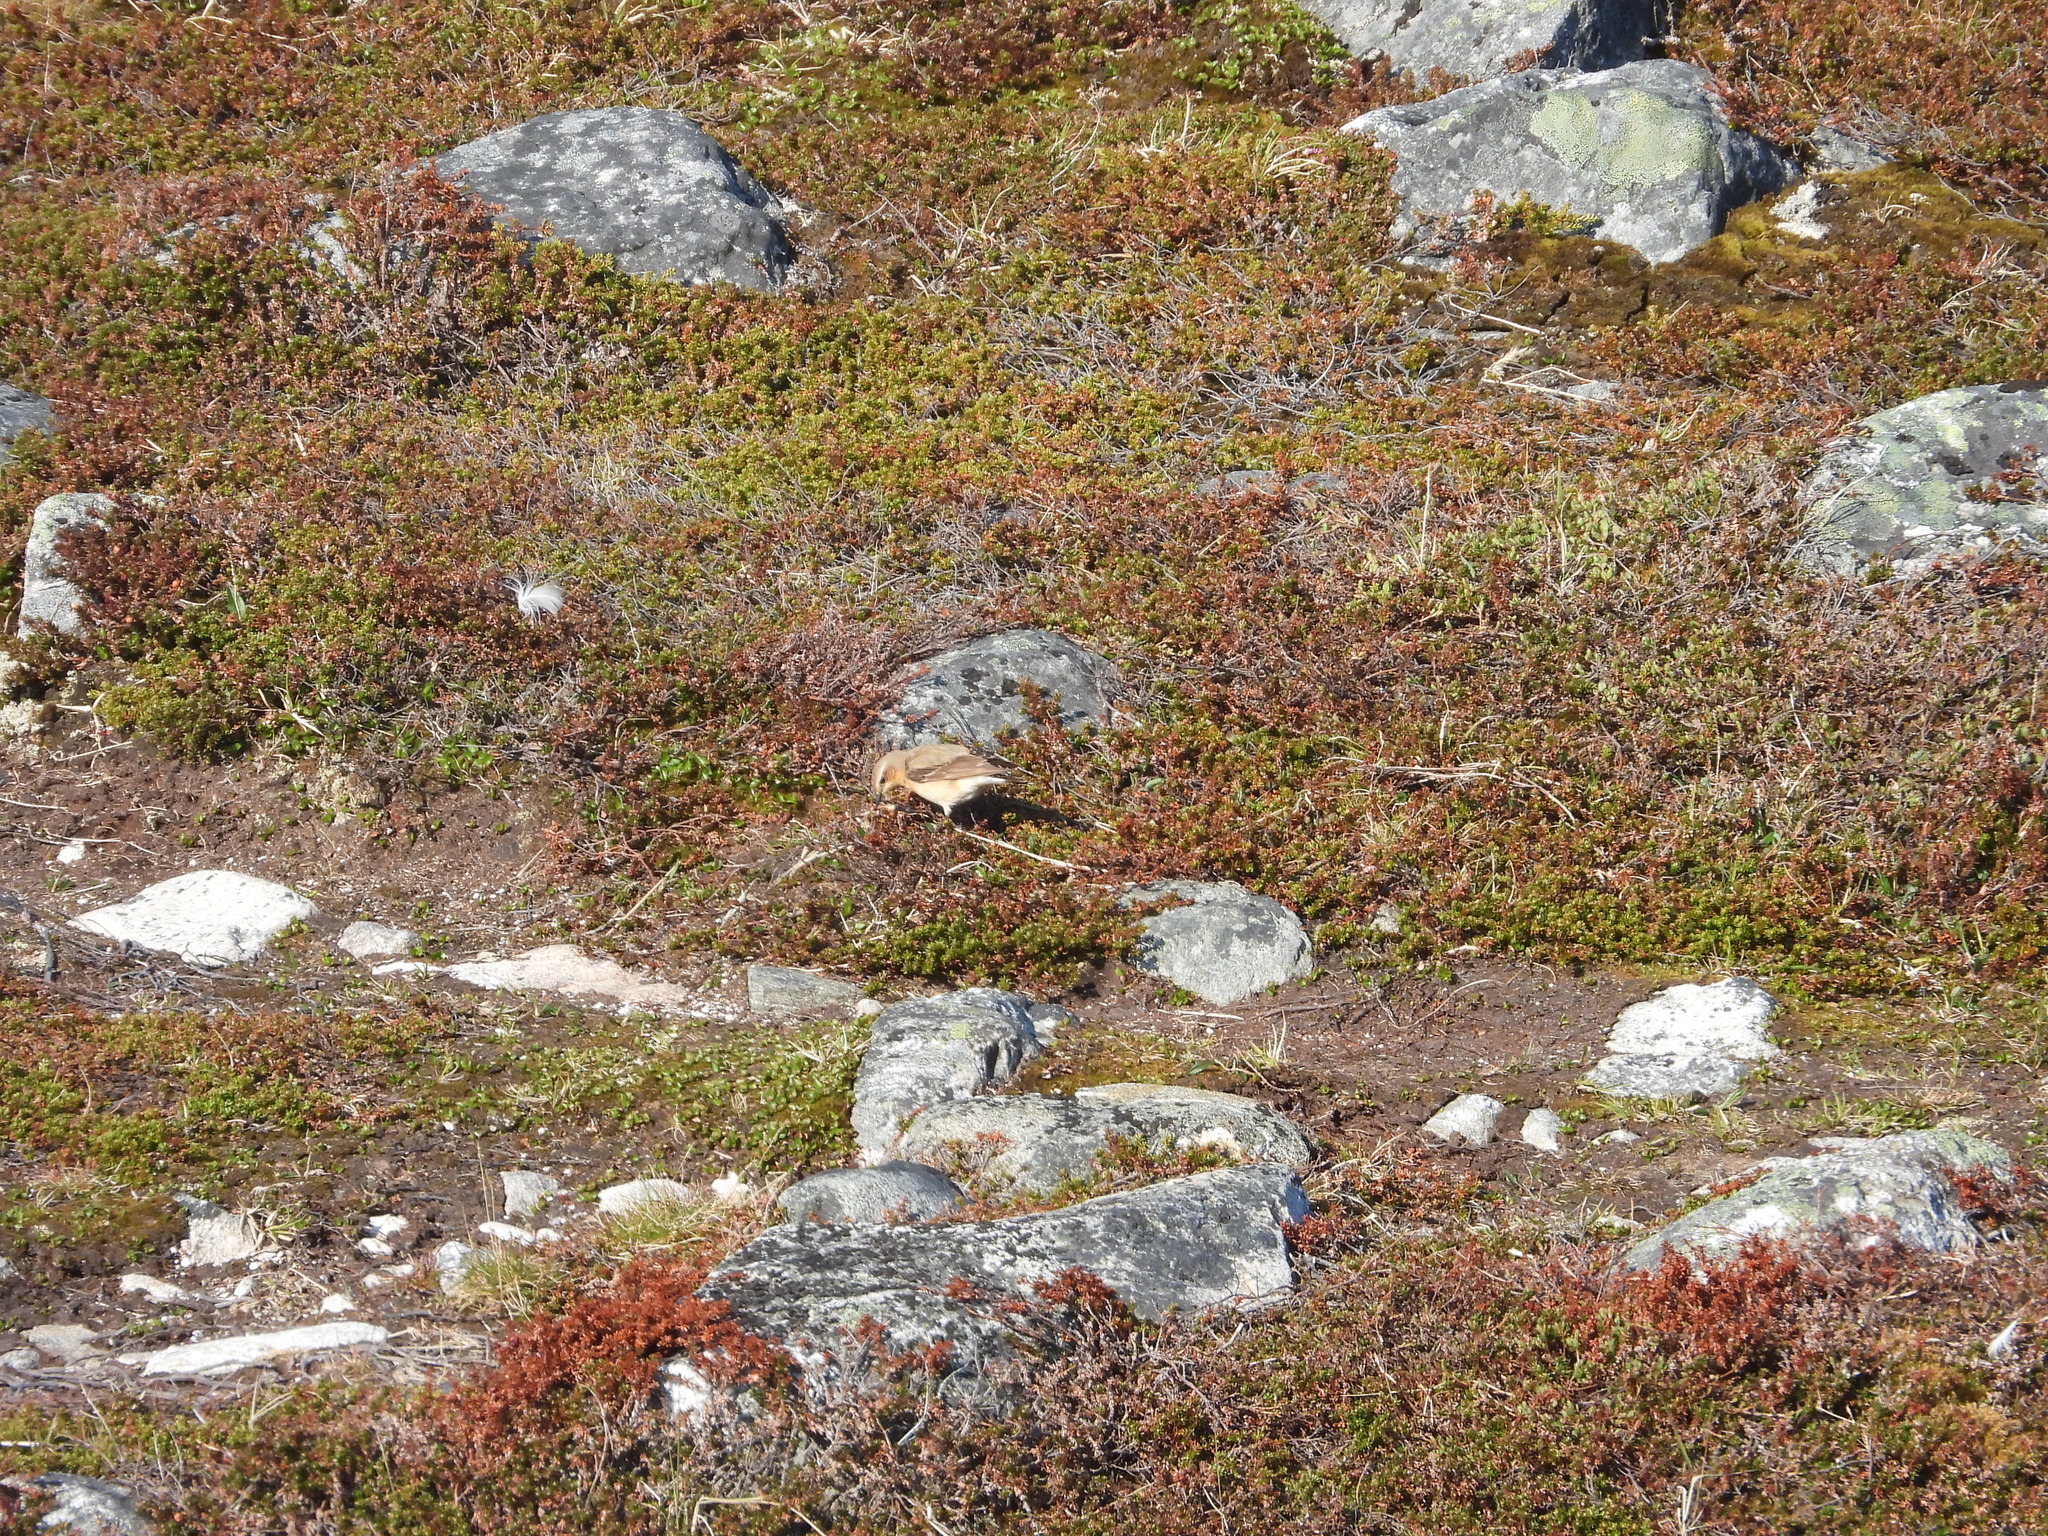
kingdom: Animalia
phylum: Chordata
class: Aves
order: Passeriformes
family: Muscicapidae
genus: Oenanthe
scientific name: Oenanthe oenanthe
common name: Northern wheatear
